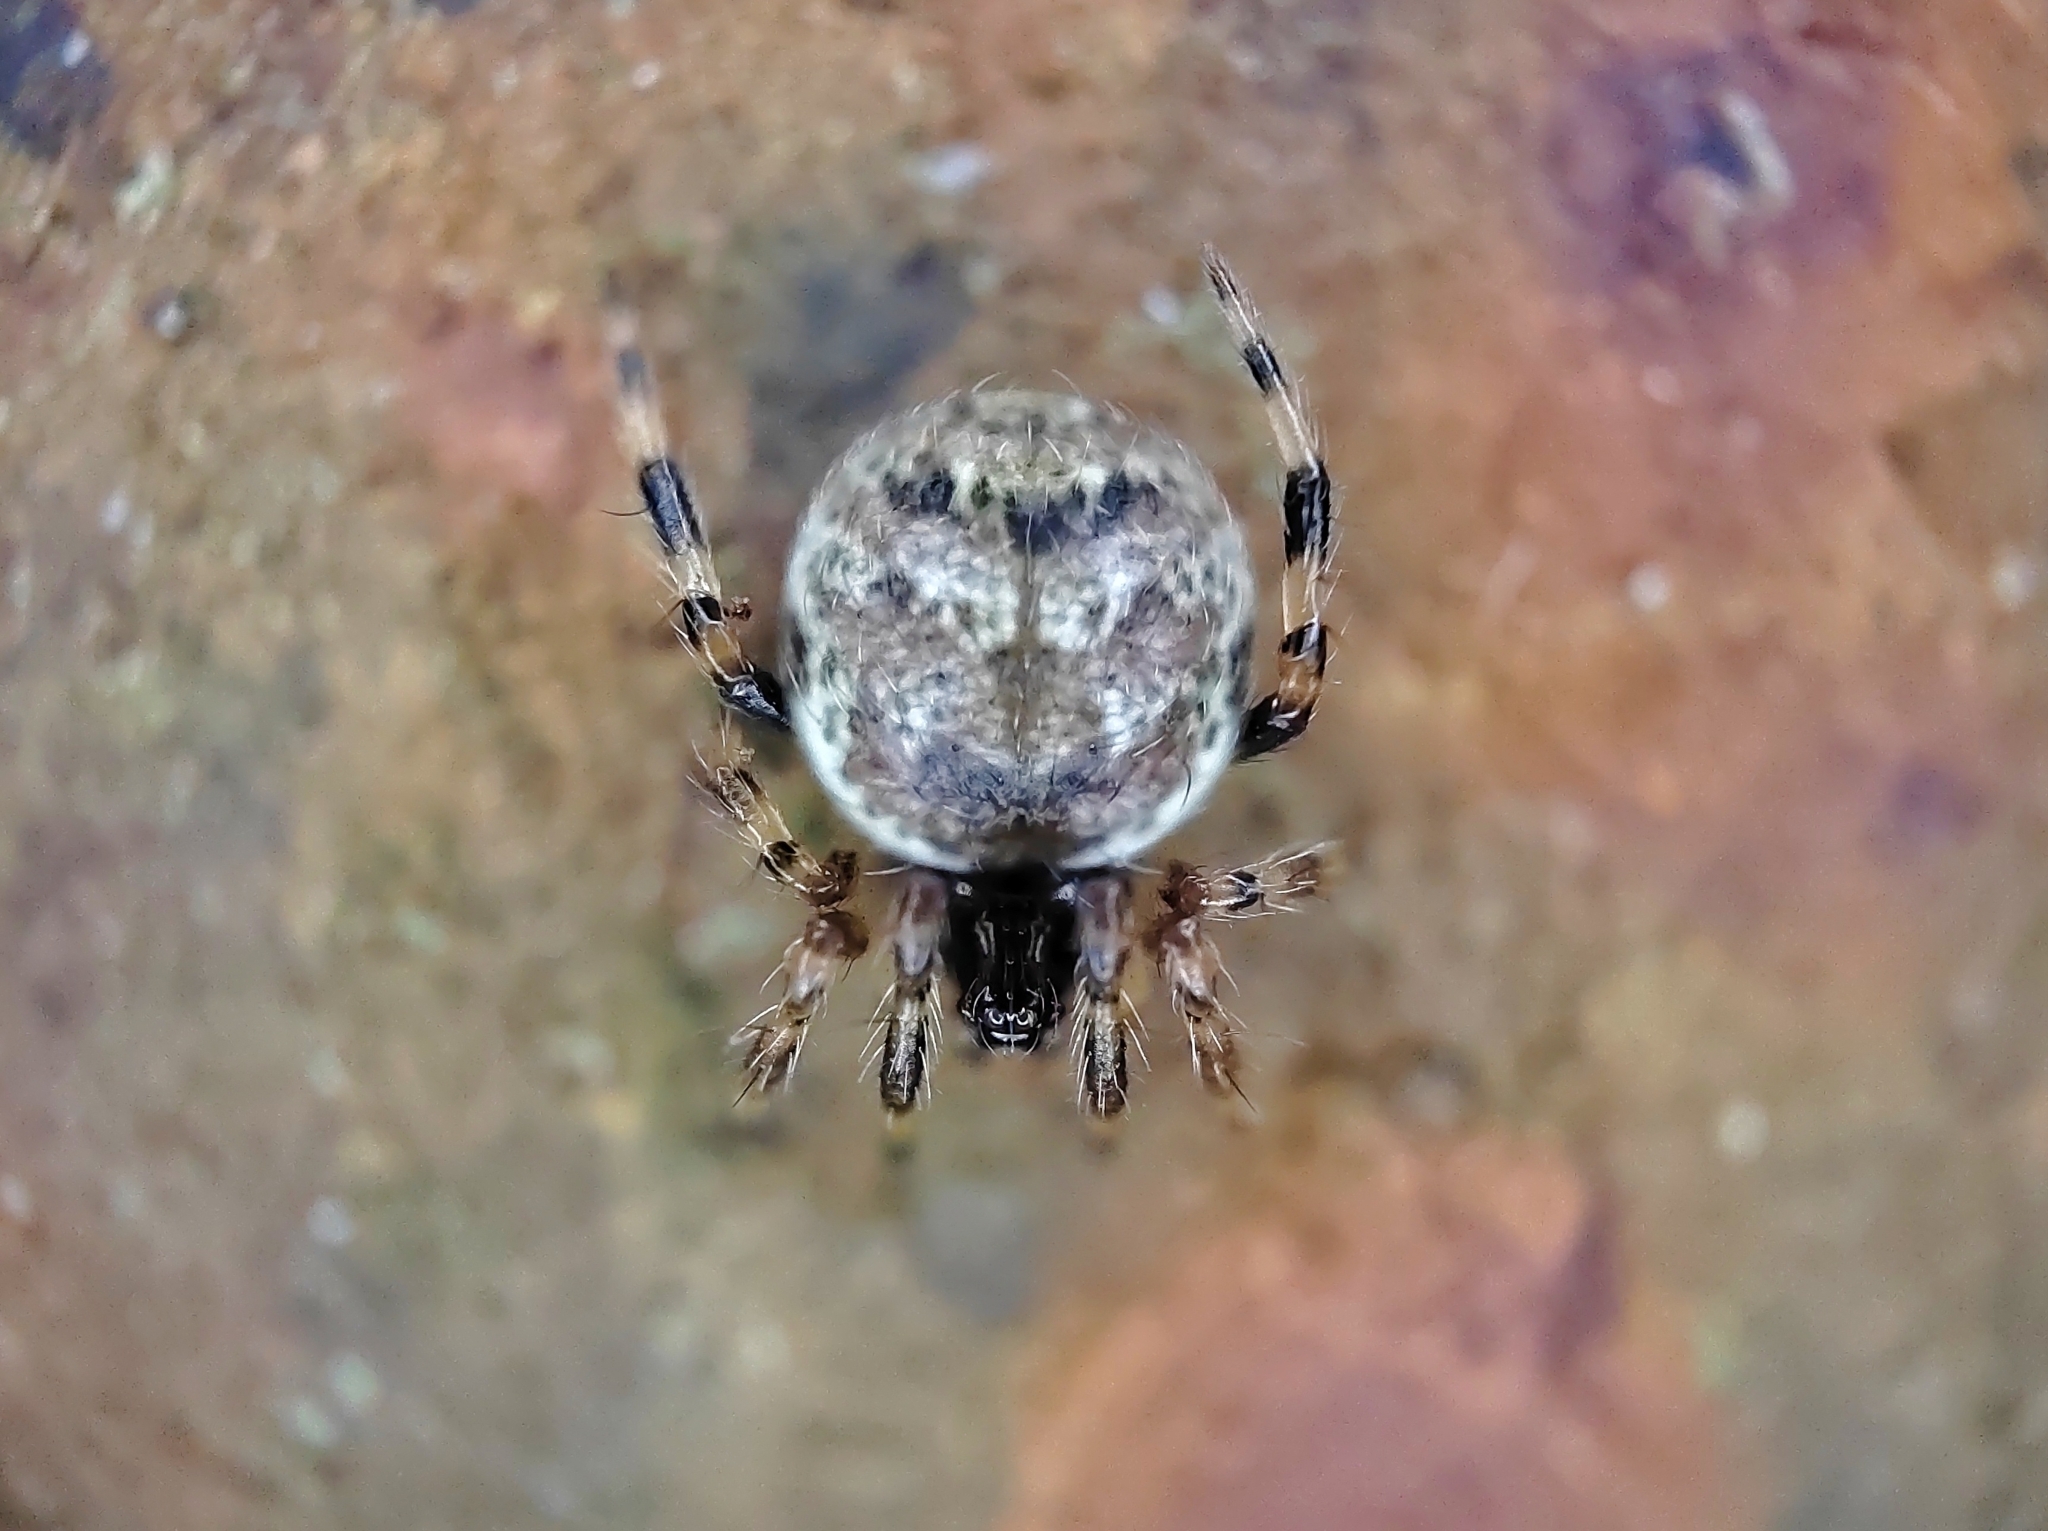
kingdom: Animalia
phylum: Arthropoda
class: Arachnida
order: Araneae
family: Theridiidae
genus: Dipoena
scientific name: Dipoena melanogaster
